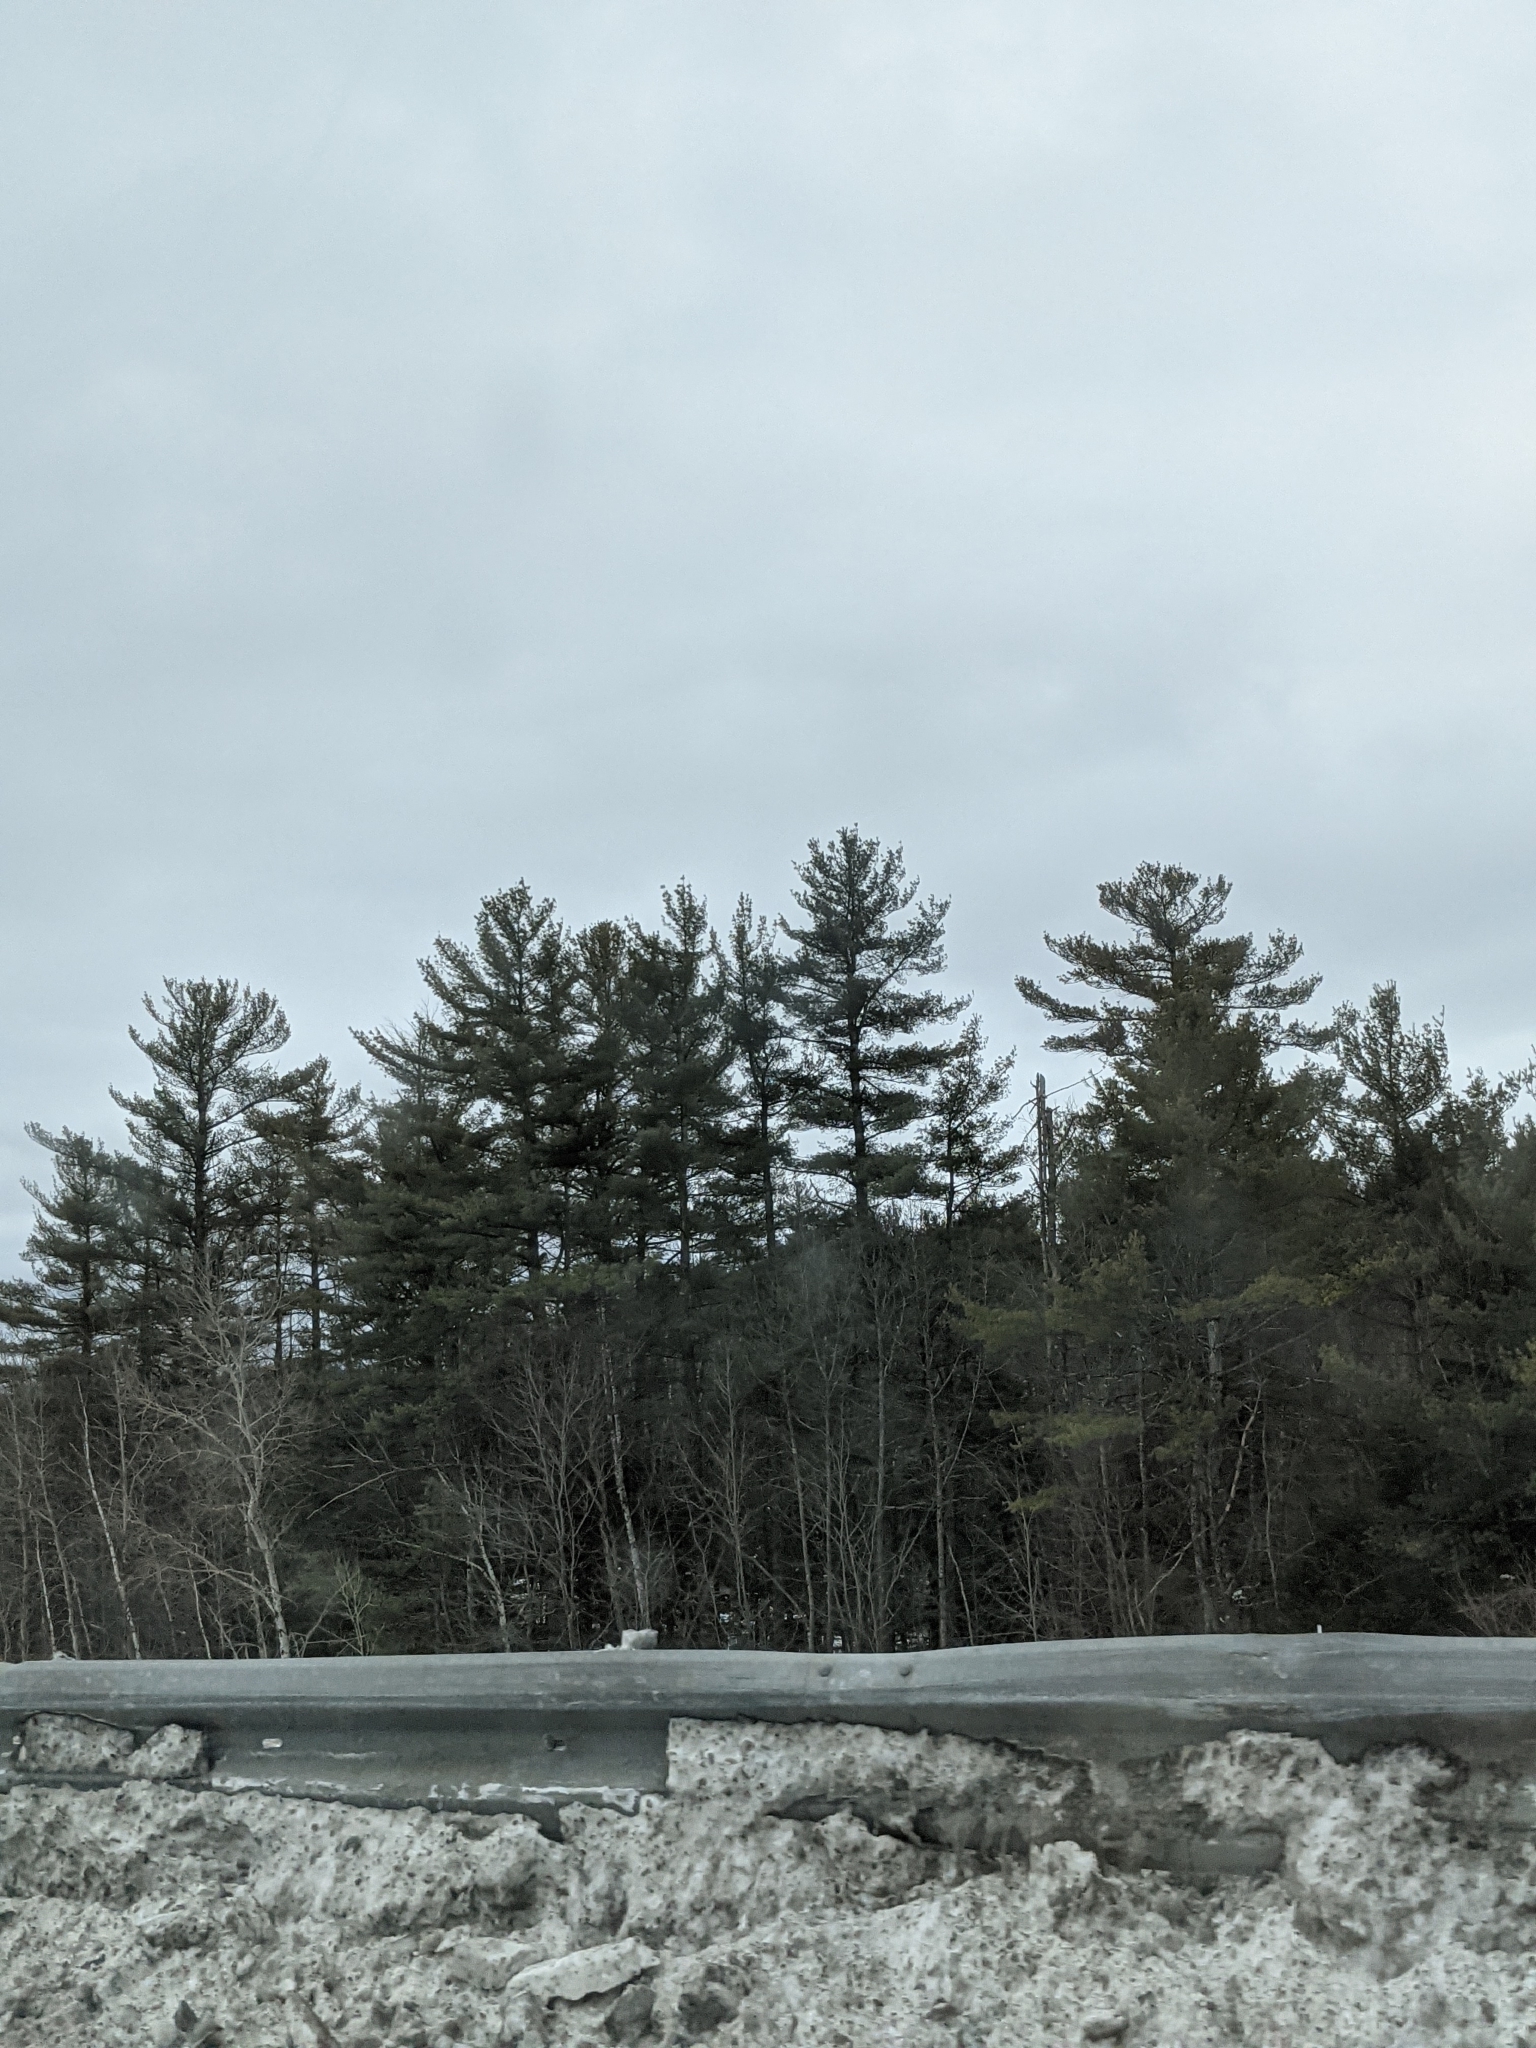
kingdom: Plantae
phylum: Tracheophyta
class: Pinopsida
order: Pinales
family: Pinaceae
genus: Pinus
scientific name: Pinus strobus
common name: Weymouth pine
